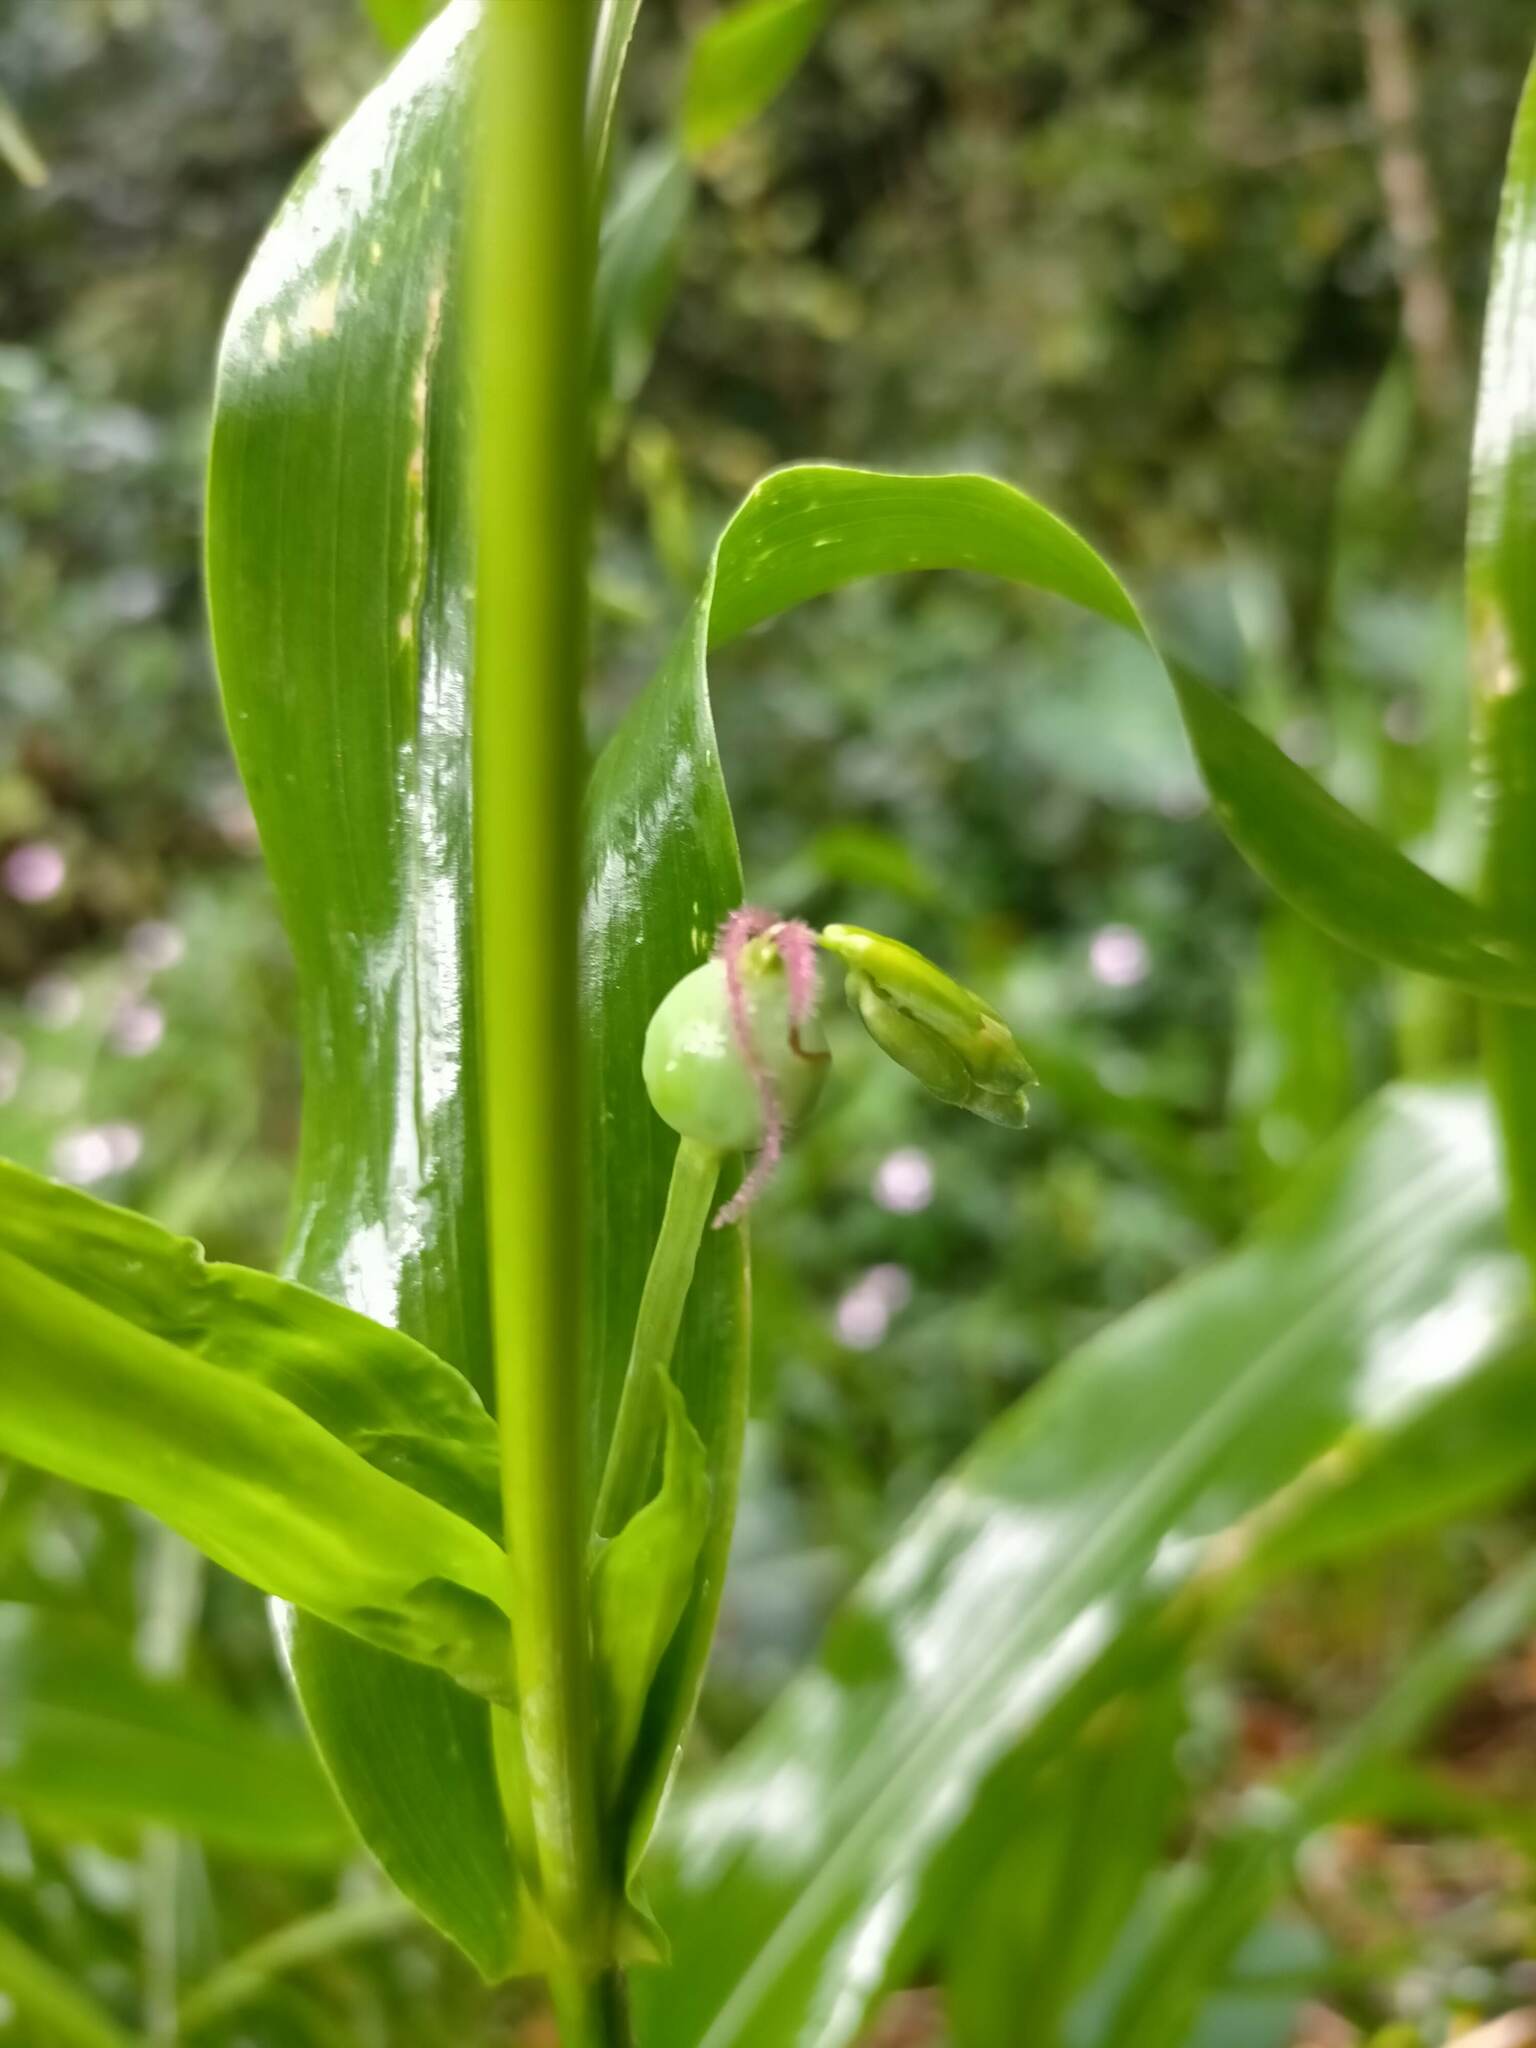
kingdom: Plantae
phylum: Tracheophyta
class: Liliopsida
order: Poales
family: Poaceae
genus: Coix
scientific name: Coix lacryma-jobi
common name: Job's tears
